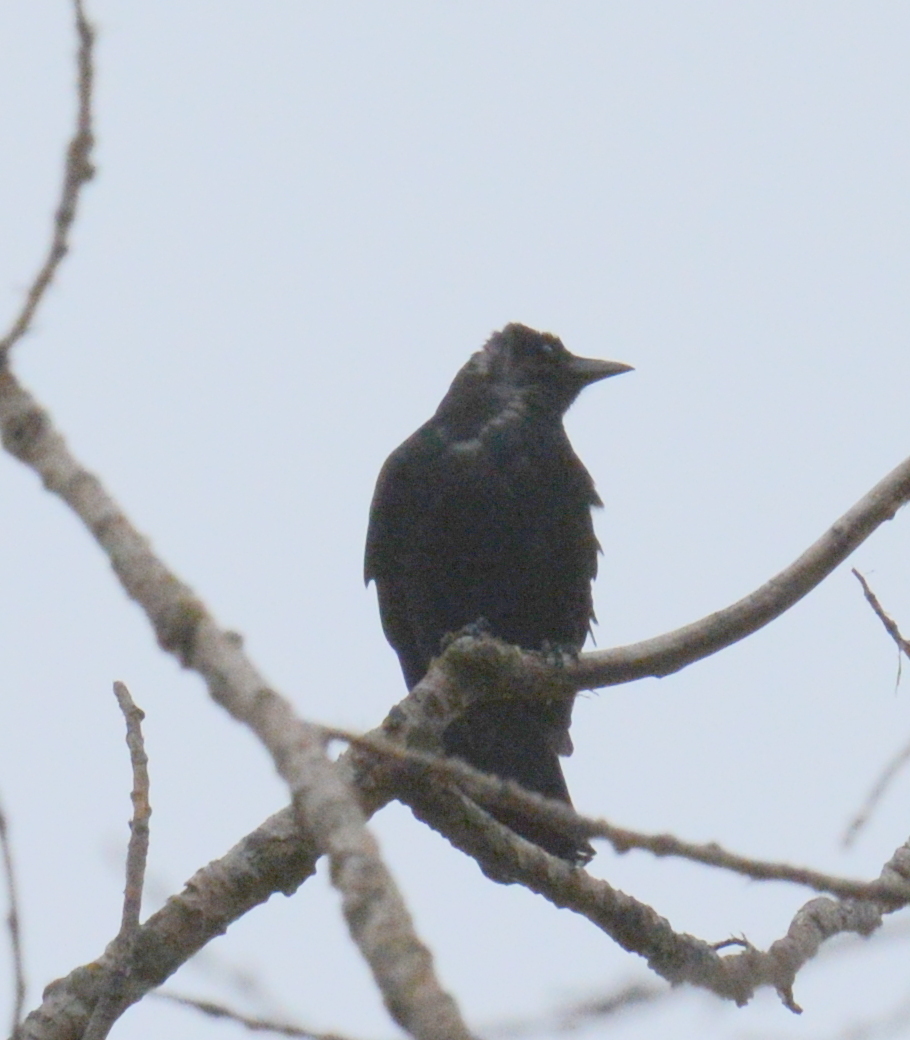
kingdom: Animalia
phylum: Chordata
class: Aves
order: Passeriformes
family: Icteridae
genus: Quiscalus
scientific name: Quiscalus quiscula
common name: Common grackle
